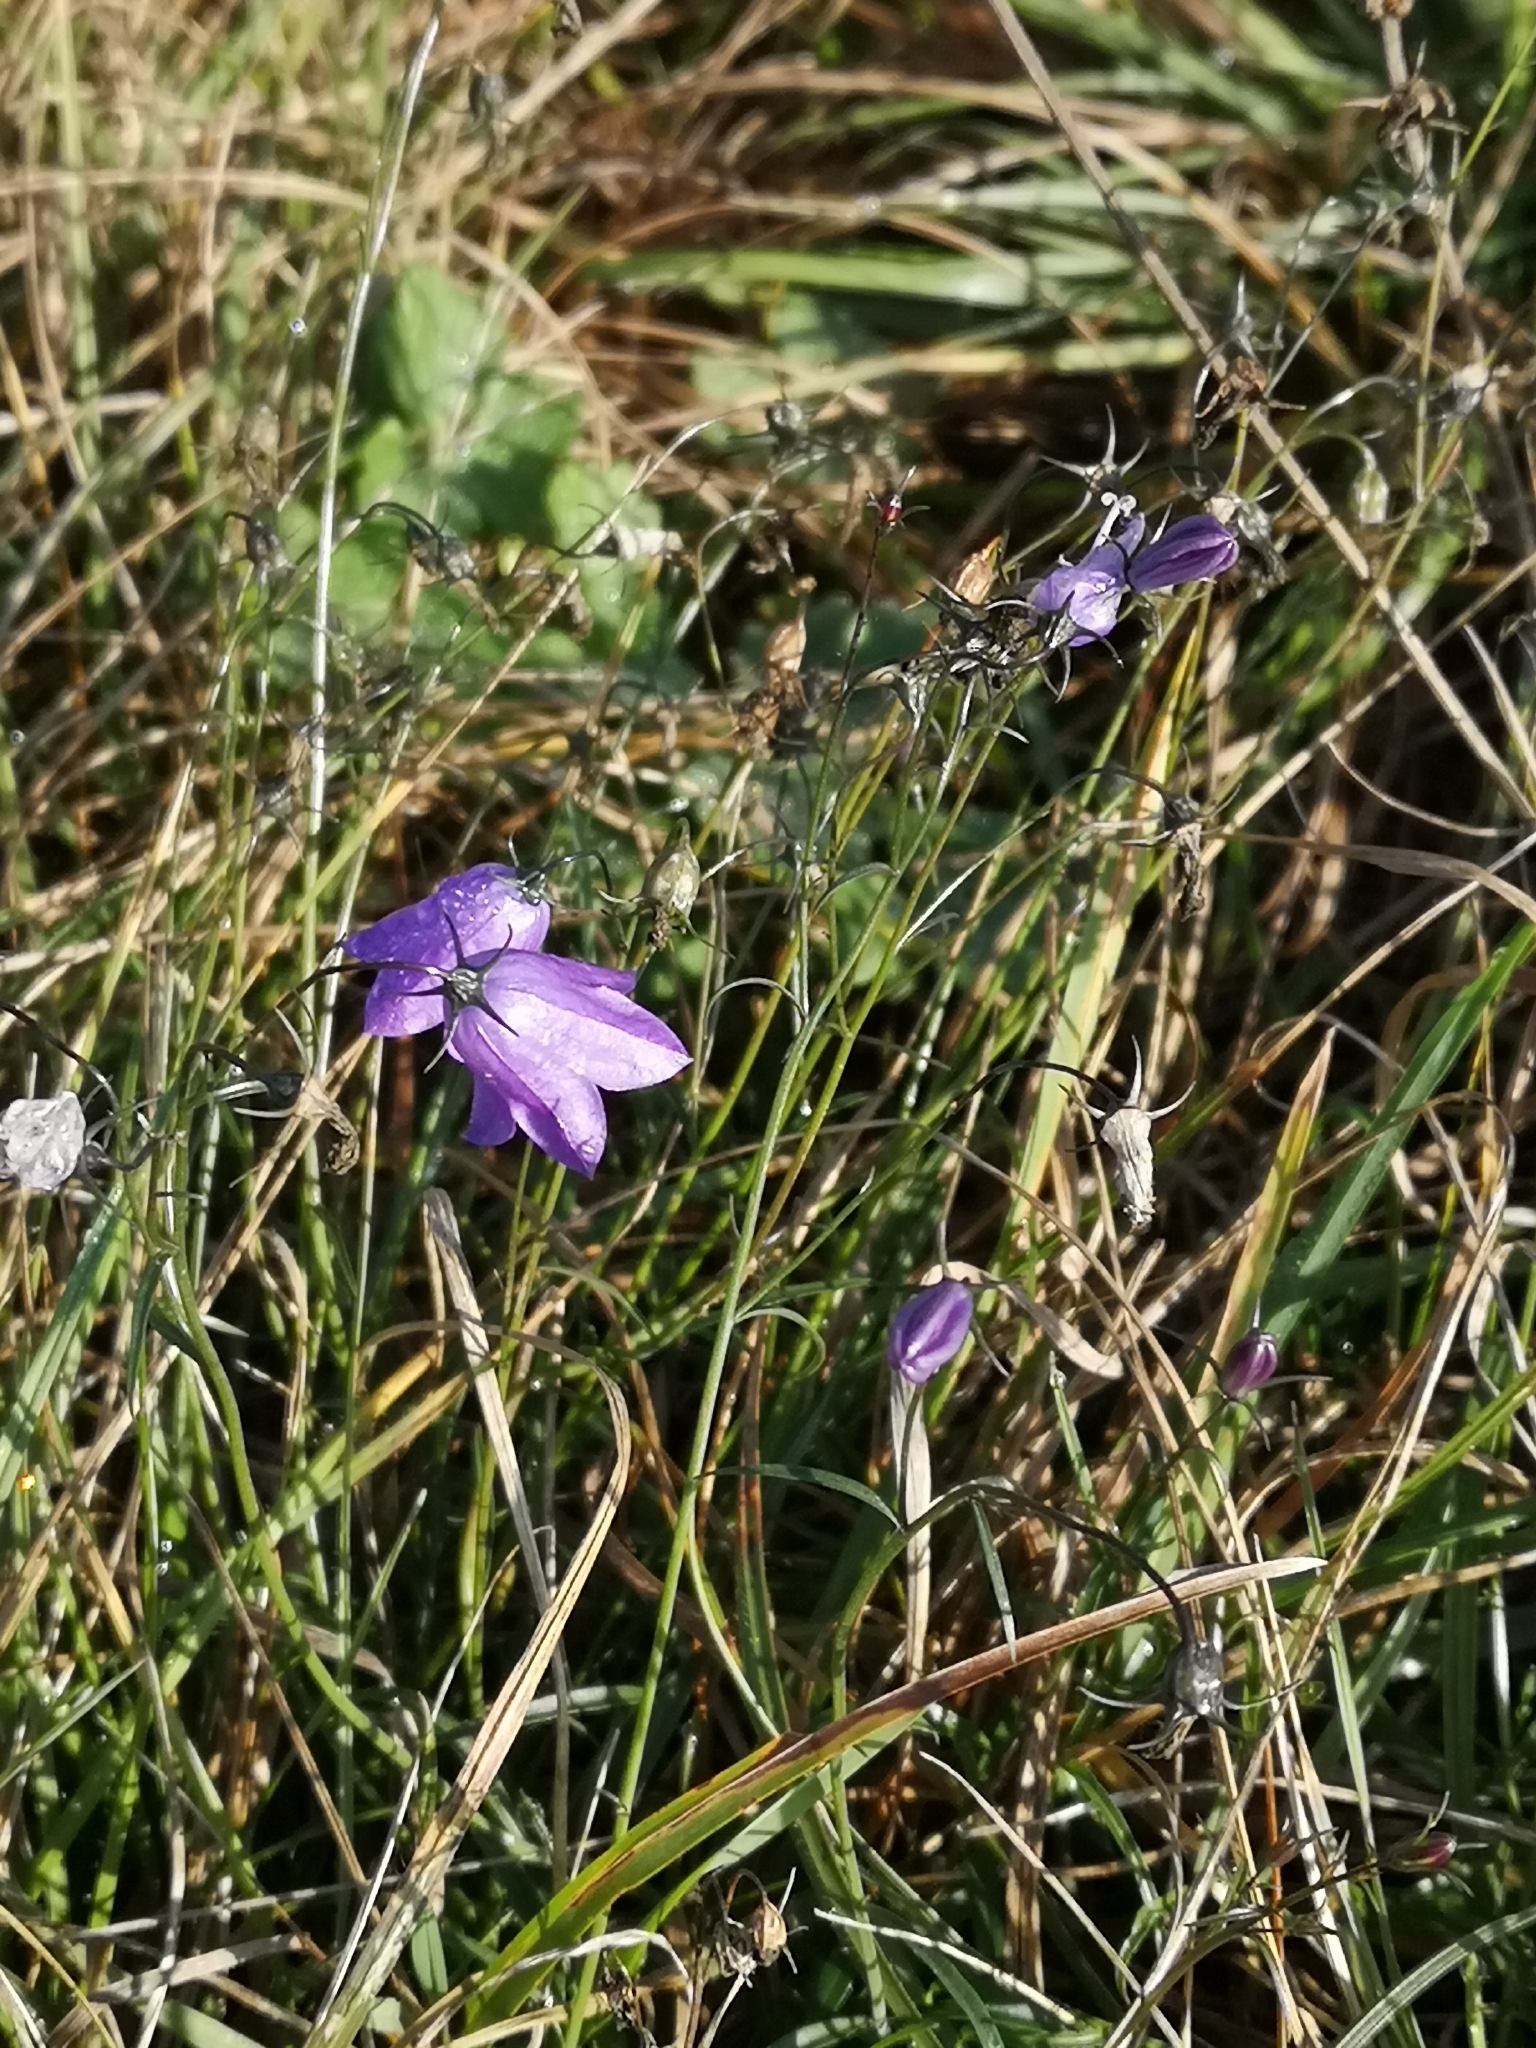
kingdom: Plantae
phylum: Tracheophyta
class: Magnoliopsida
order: Asterales
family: Campanulaceae
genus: Campanula
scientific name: Campanula rotundifolia
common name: Harebell
